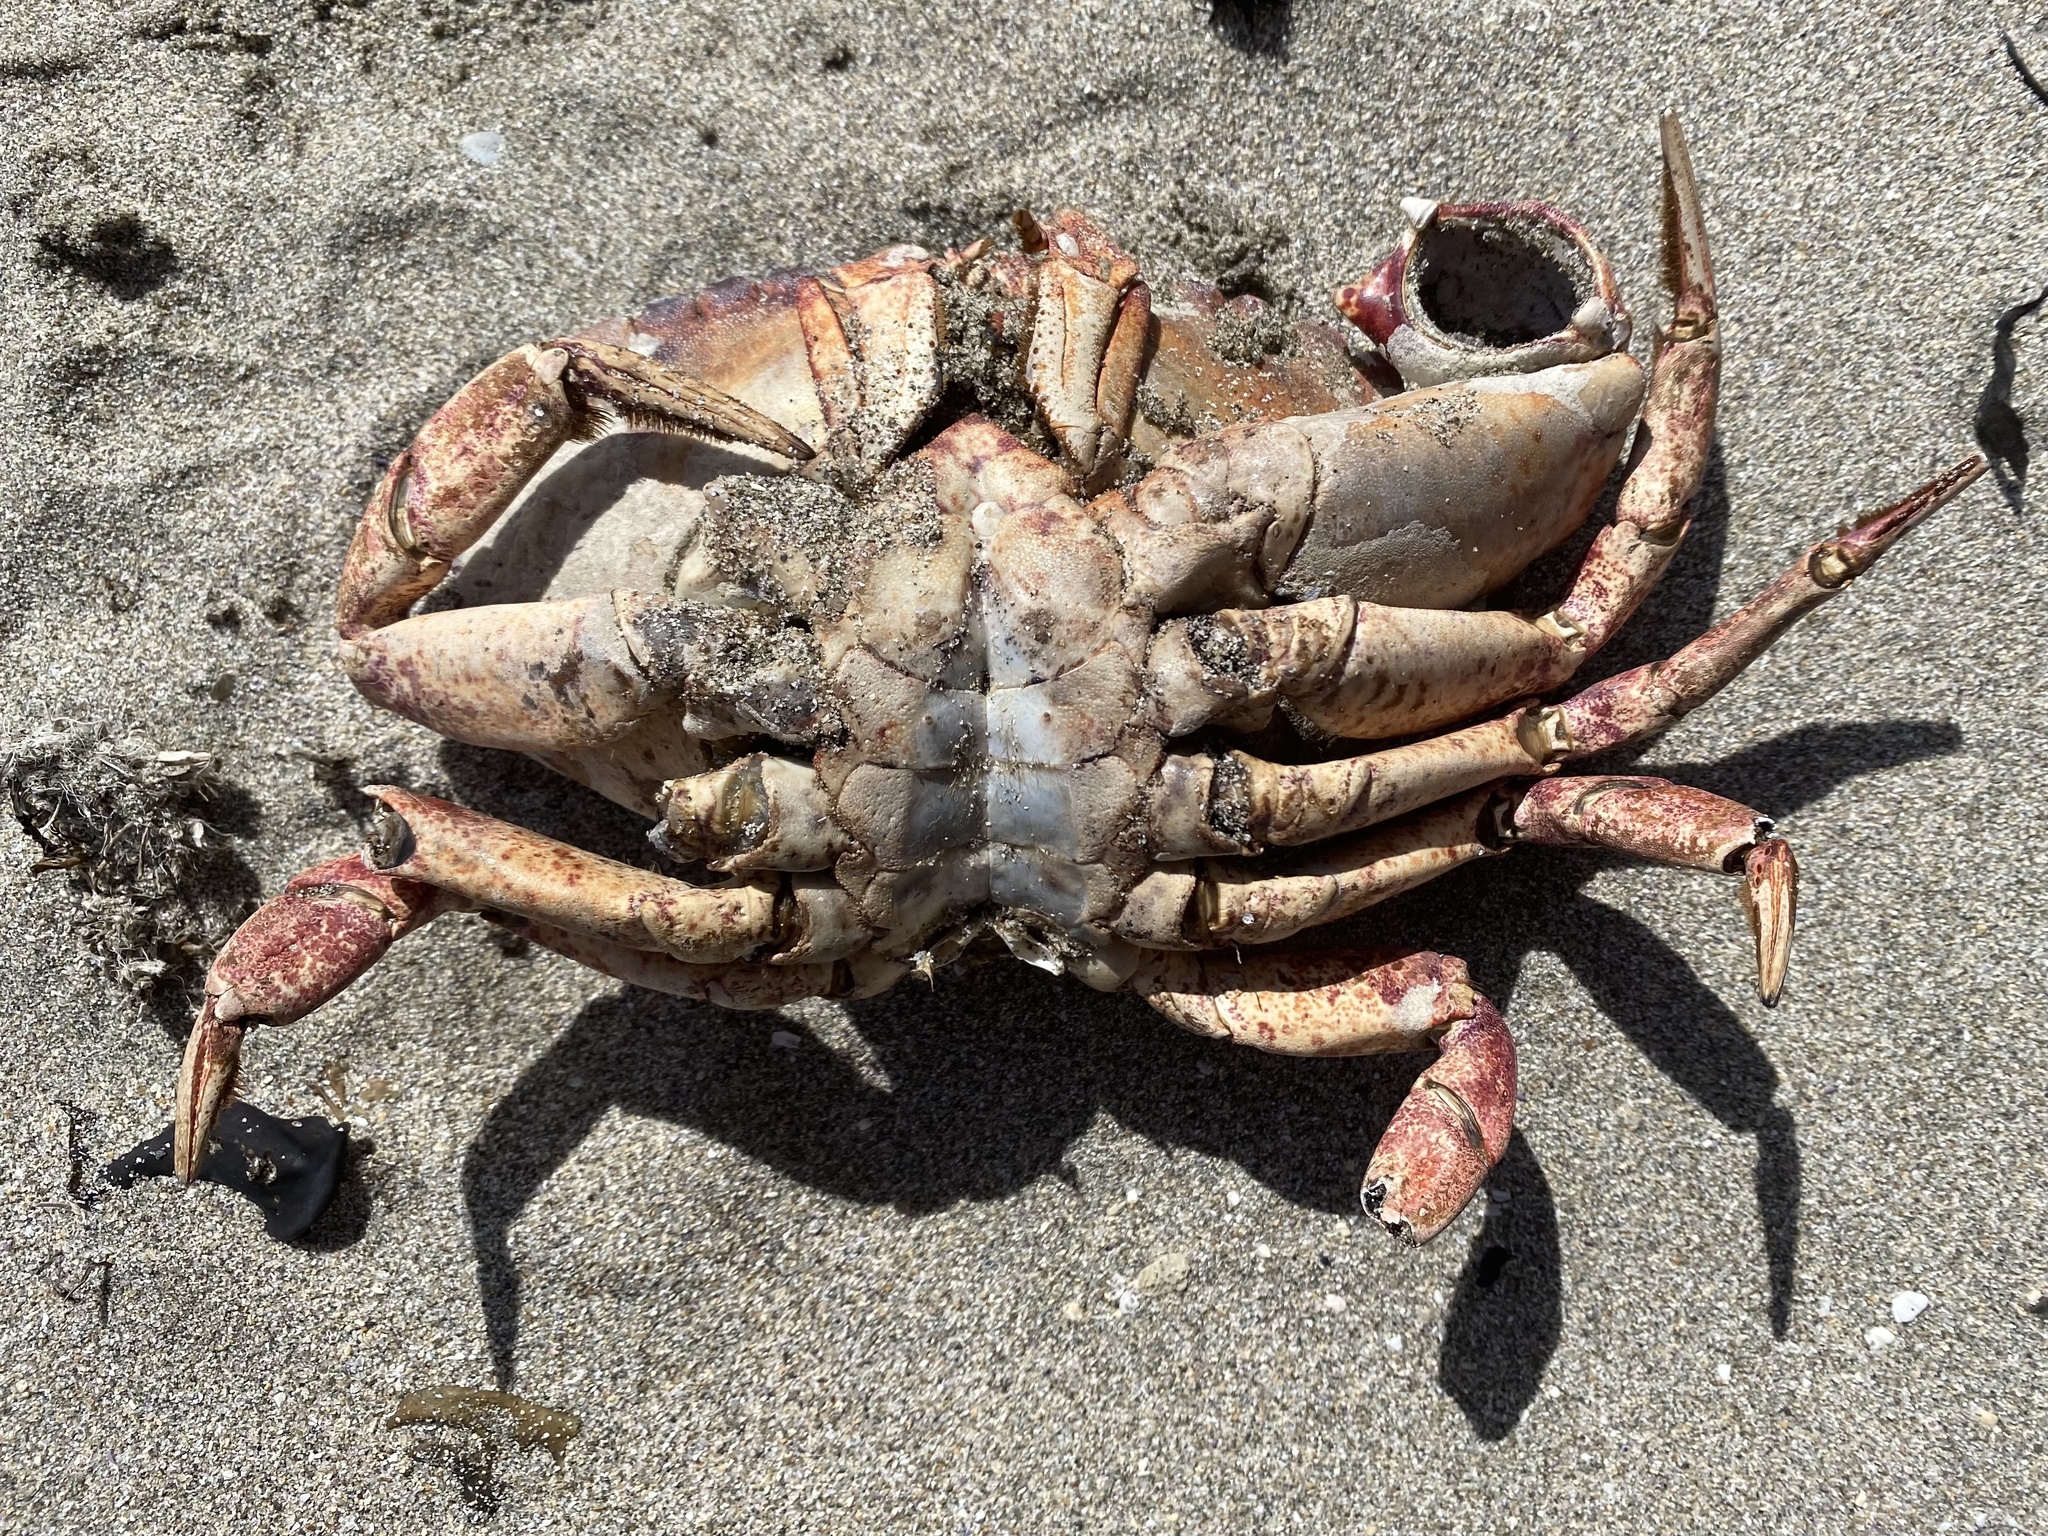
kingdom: Animalia
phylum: Arthropoda
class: Malacostraca
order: Decapoda
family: Cancridae
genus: Cancer
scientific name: Cancer productus
